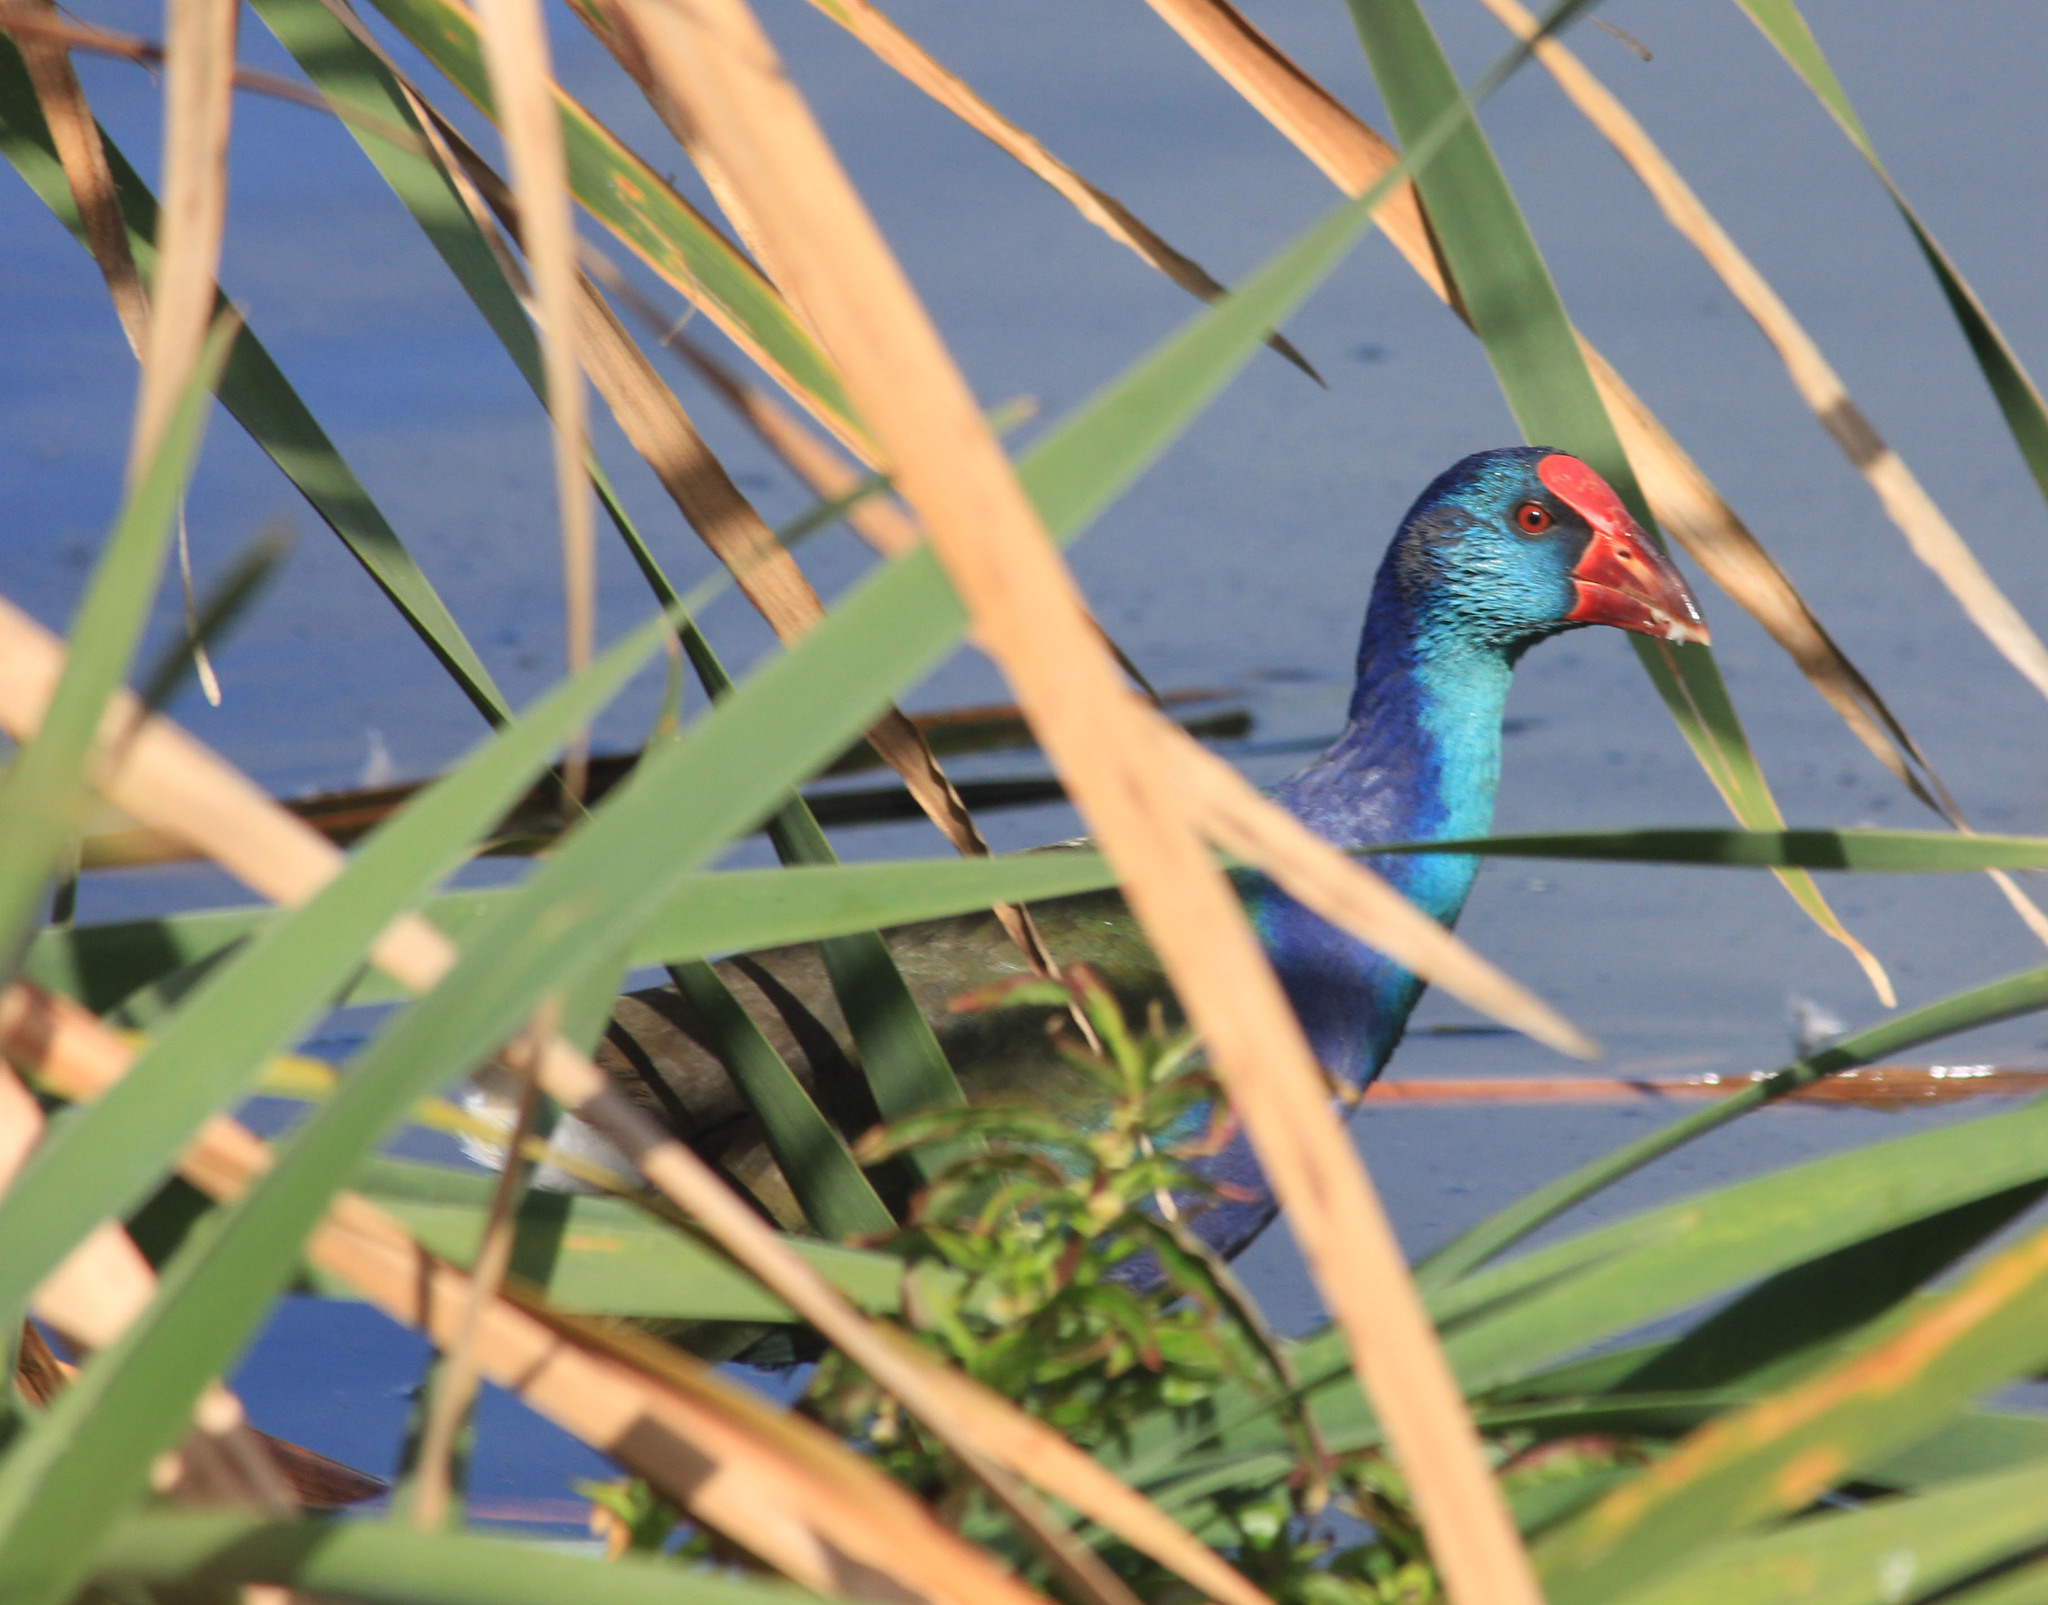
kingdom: Animalia
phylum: Chordata
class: Aves
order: Gruiformes
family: Rallidae
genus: Porphyrio
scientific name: Porphyrio porphyrio
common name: Purple swamphen
